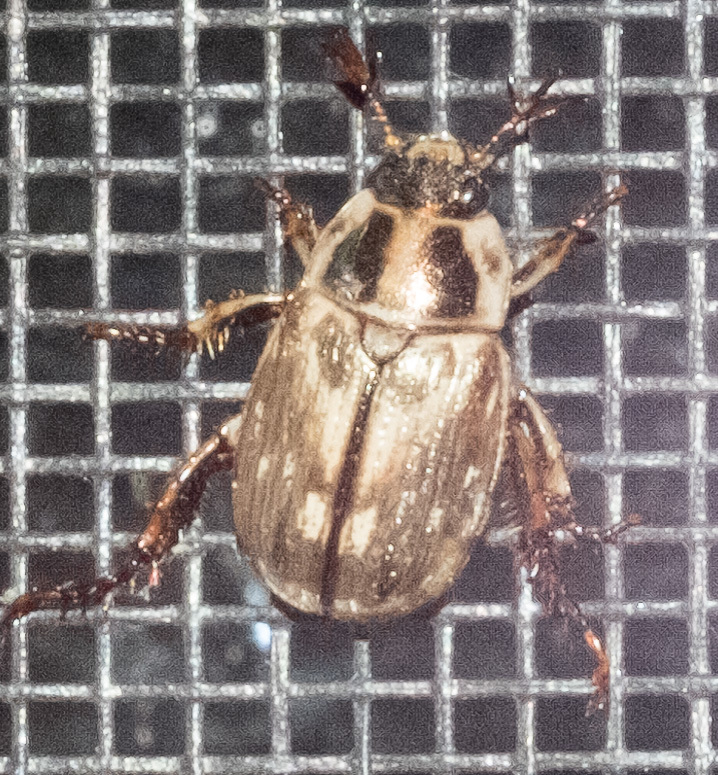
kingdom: Animalia
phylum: Arthropoda
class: Insecta
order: Coleoptera
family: Scarabaeidae
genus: Exomala
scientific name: Exomala orientalis
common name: Oriental beetle
